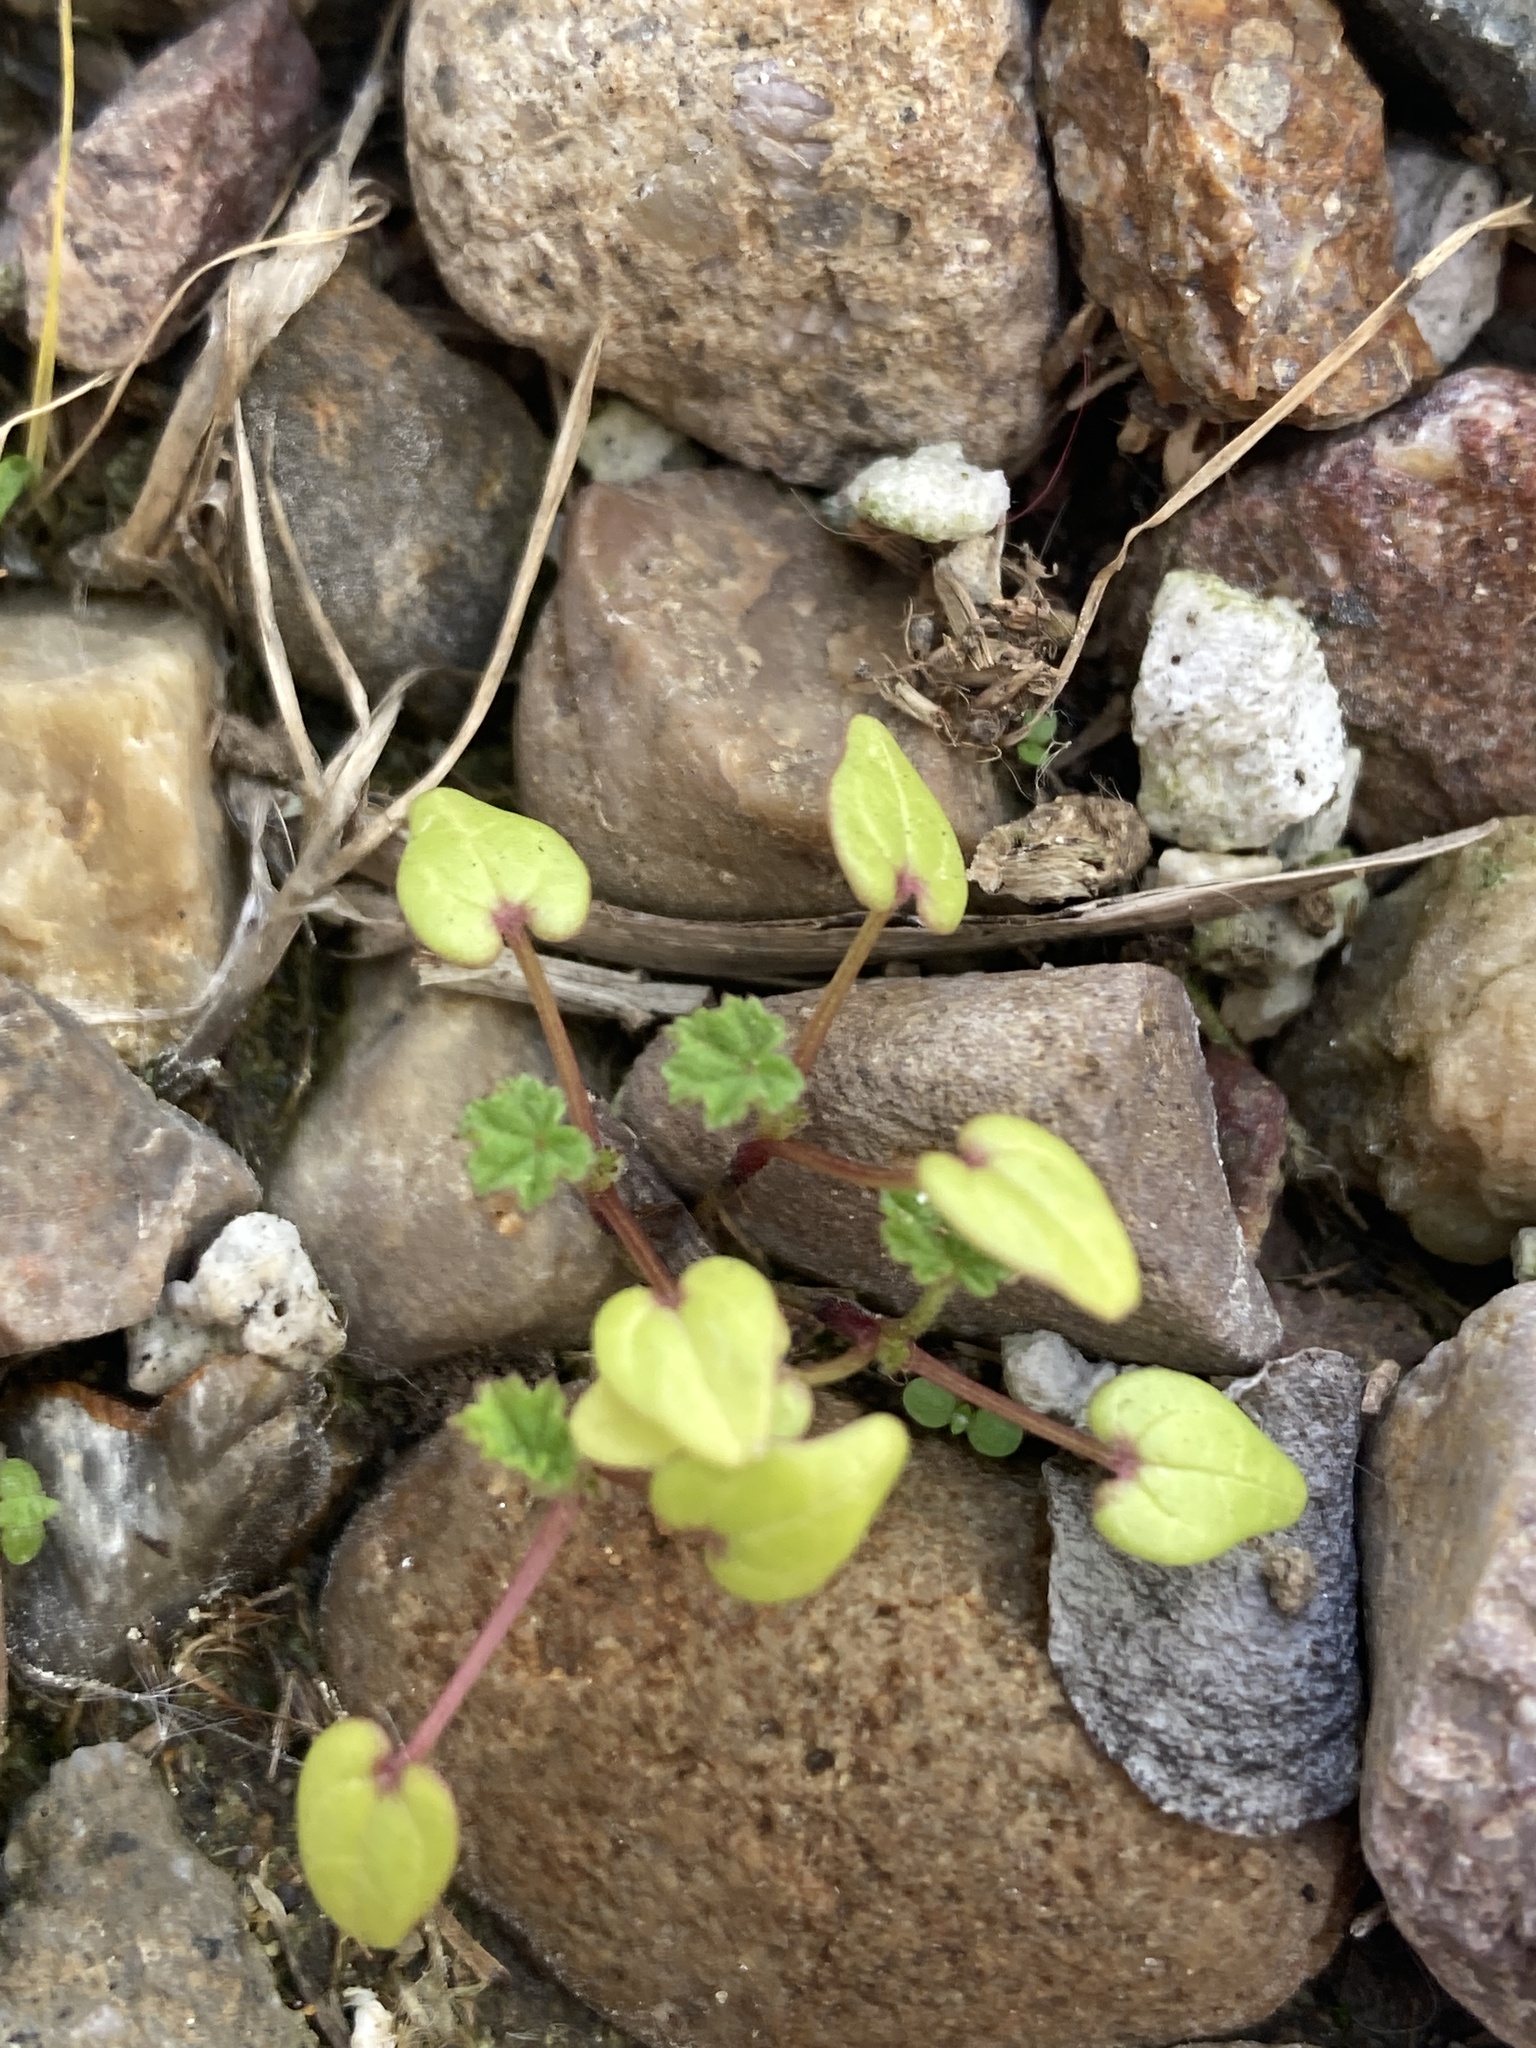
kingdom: Plantae
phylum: Tracheophyta
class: Magnoliopsida
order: Malvales
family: Malvaceae
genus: Malva
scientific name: Malva
